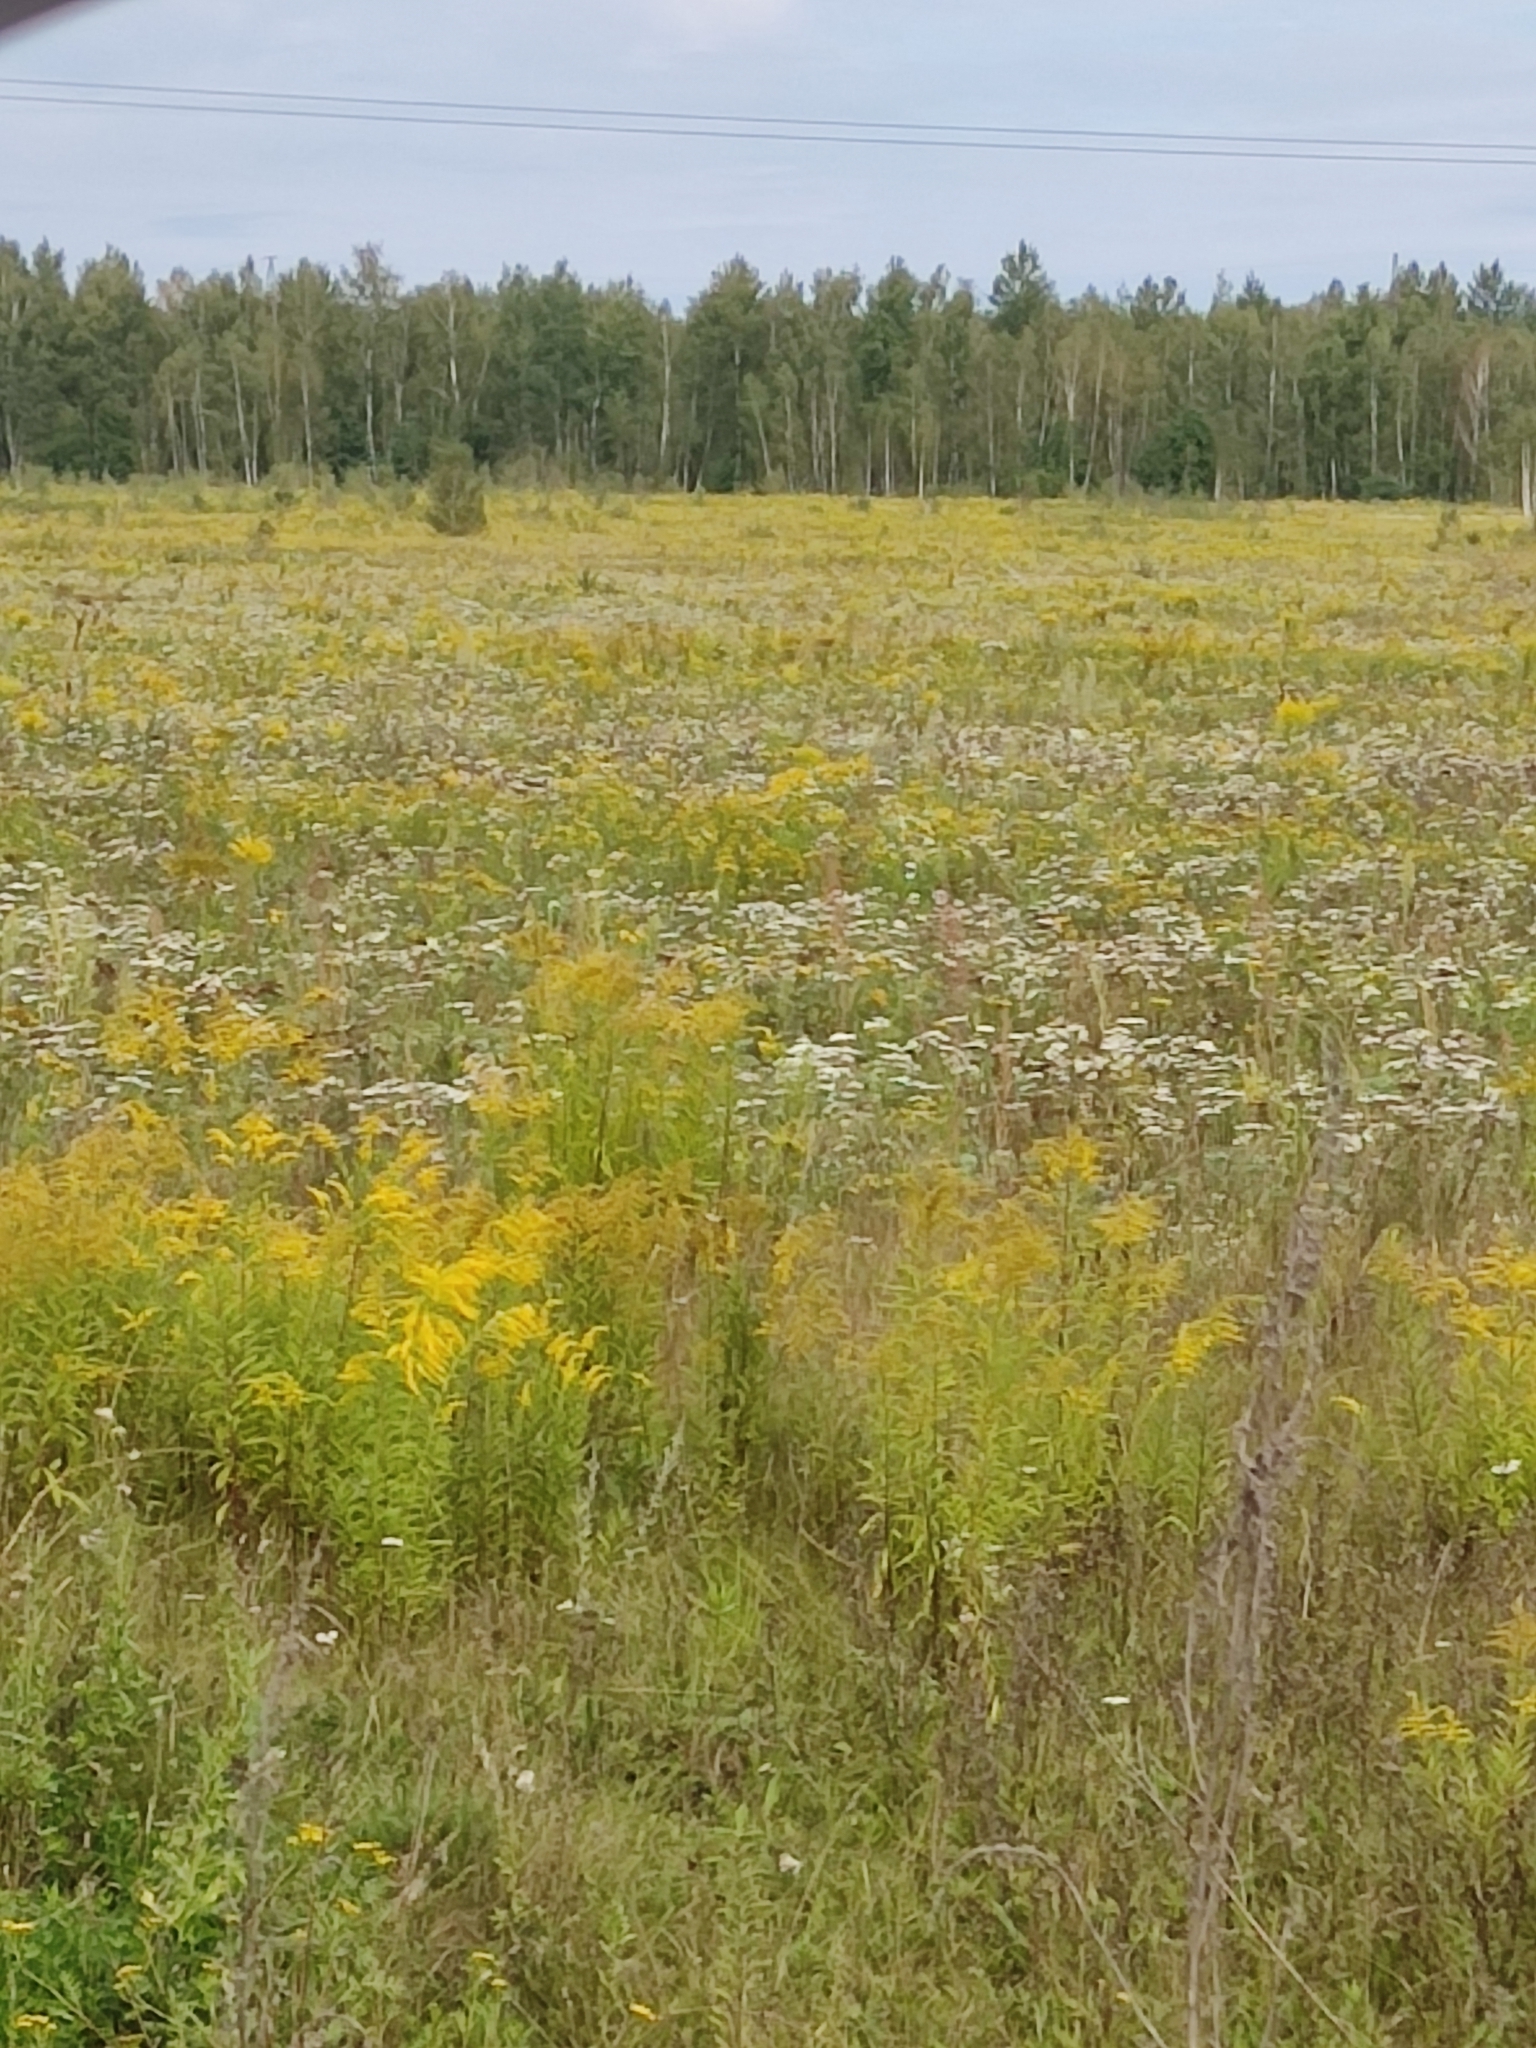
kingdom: Plantae
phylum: Tracheophyta
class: Magnoliopsida
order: Asterales
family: Asteraceae
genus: Solidago
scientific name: Solidago canadensis
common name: Canada goldenrod
